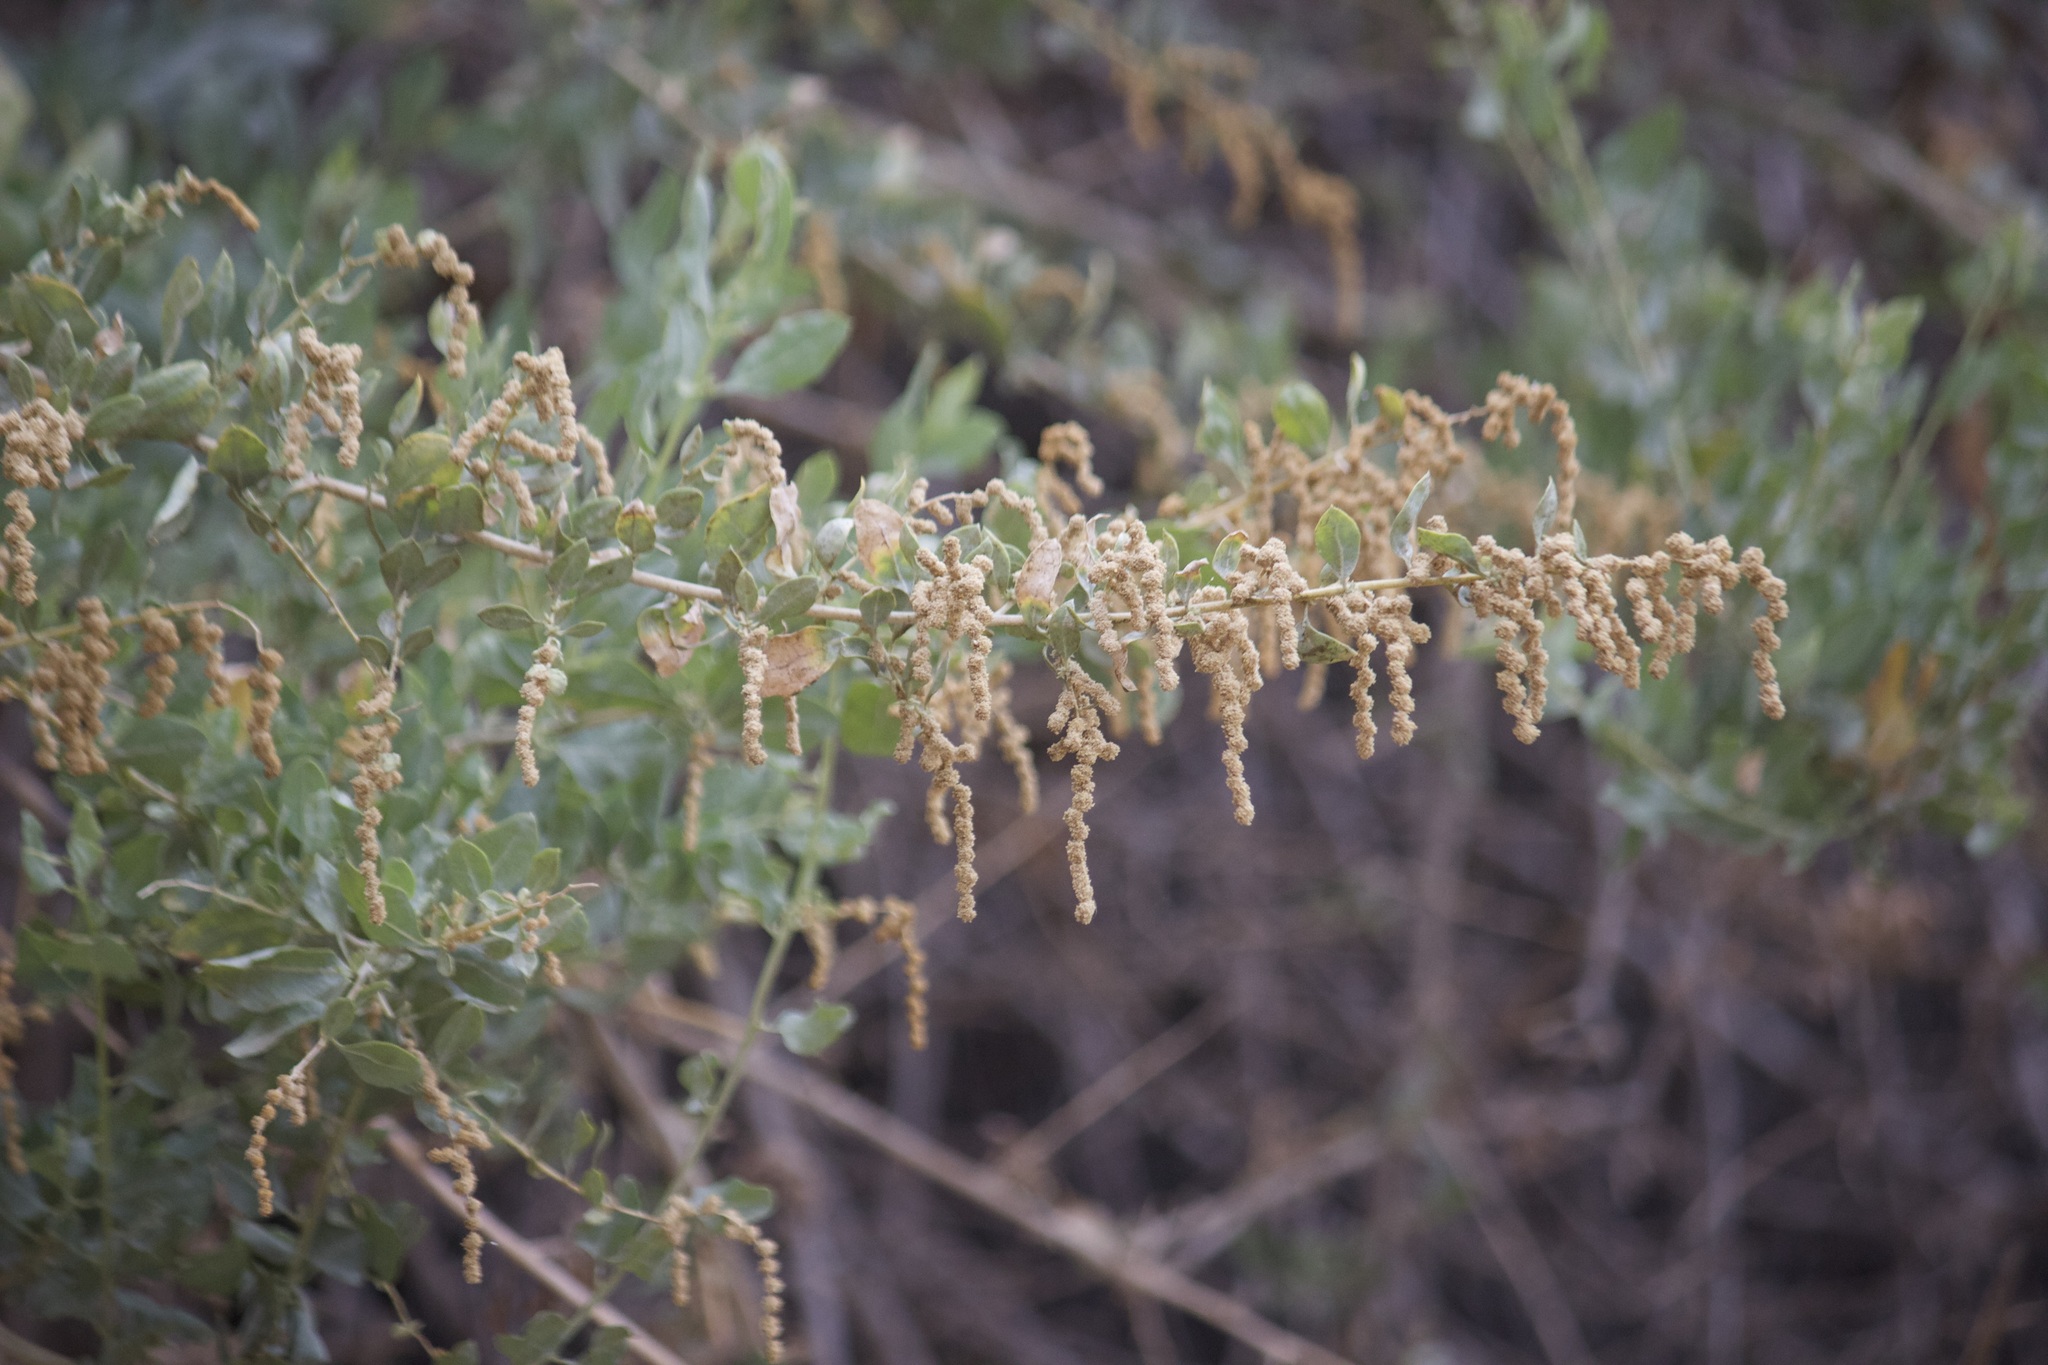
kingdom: Plantae
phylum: Tracheophyta
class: Magnoliopsida
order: Caryophyllales
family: Amaranthaceae
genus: Atriplex
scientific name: Atriplex lentiformis
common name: Big saltbush
